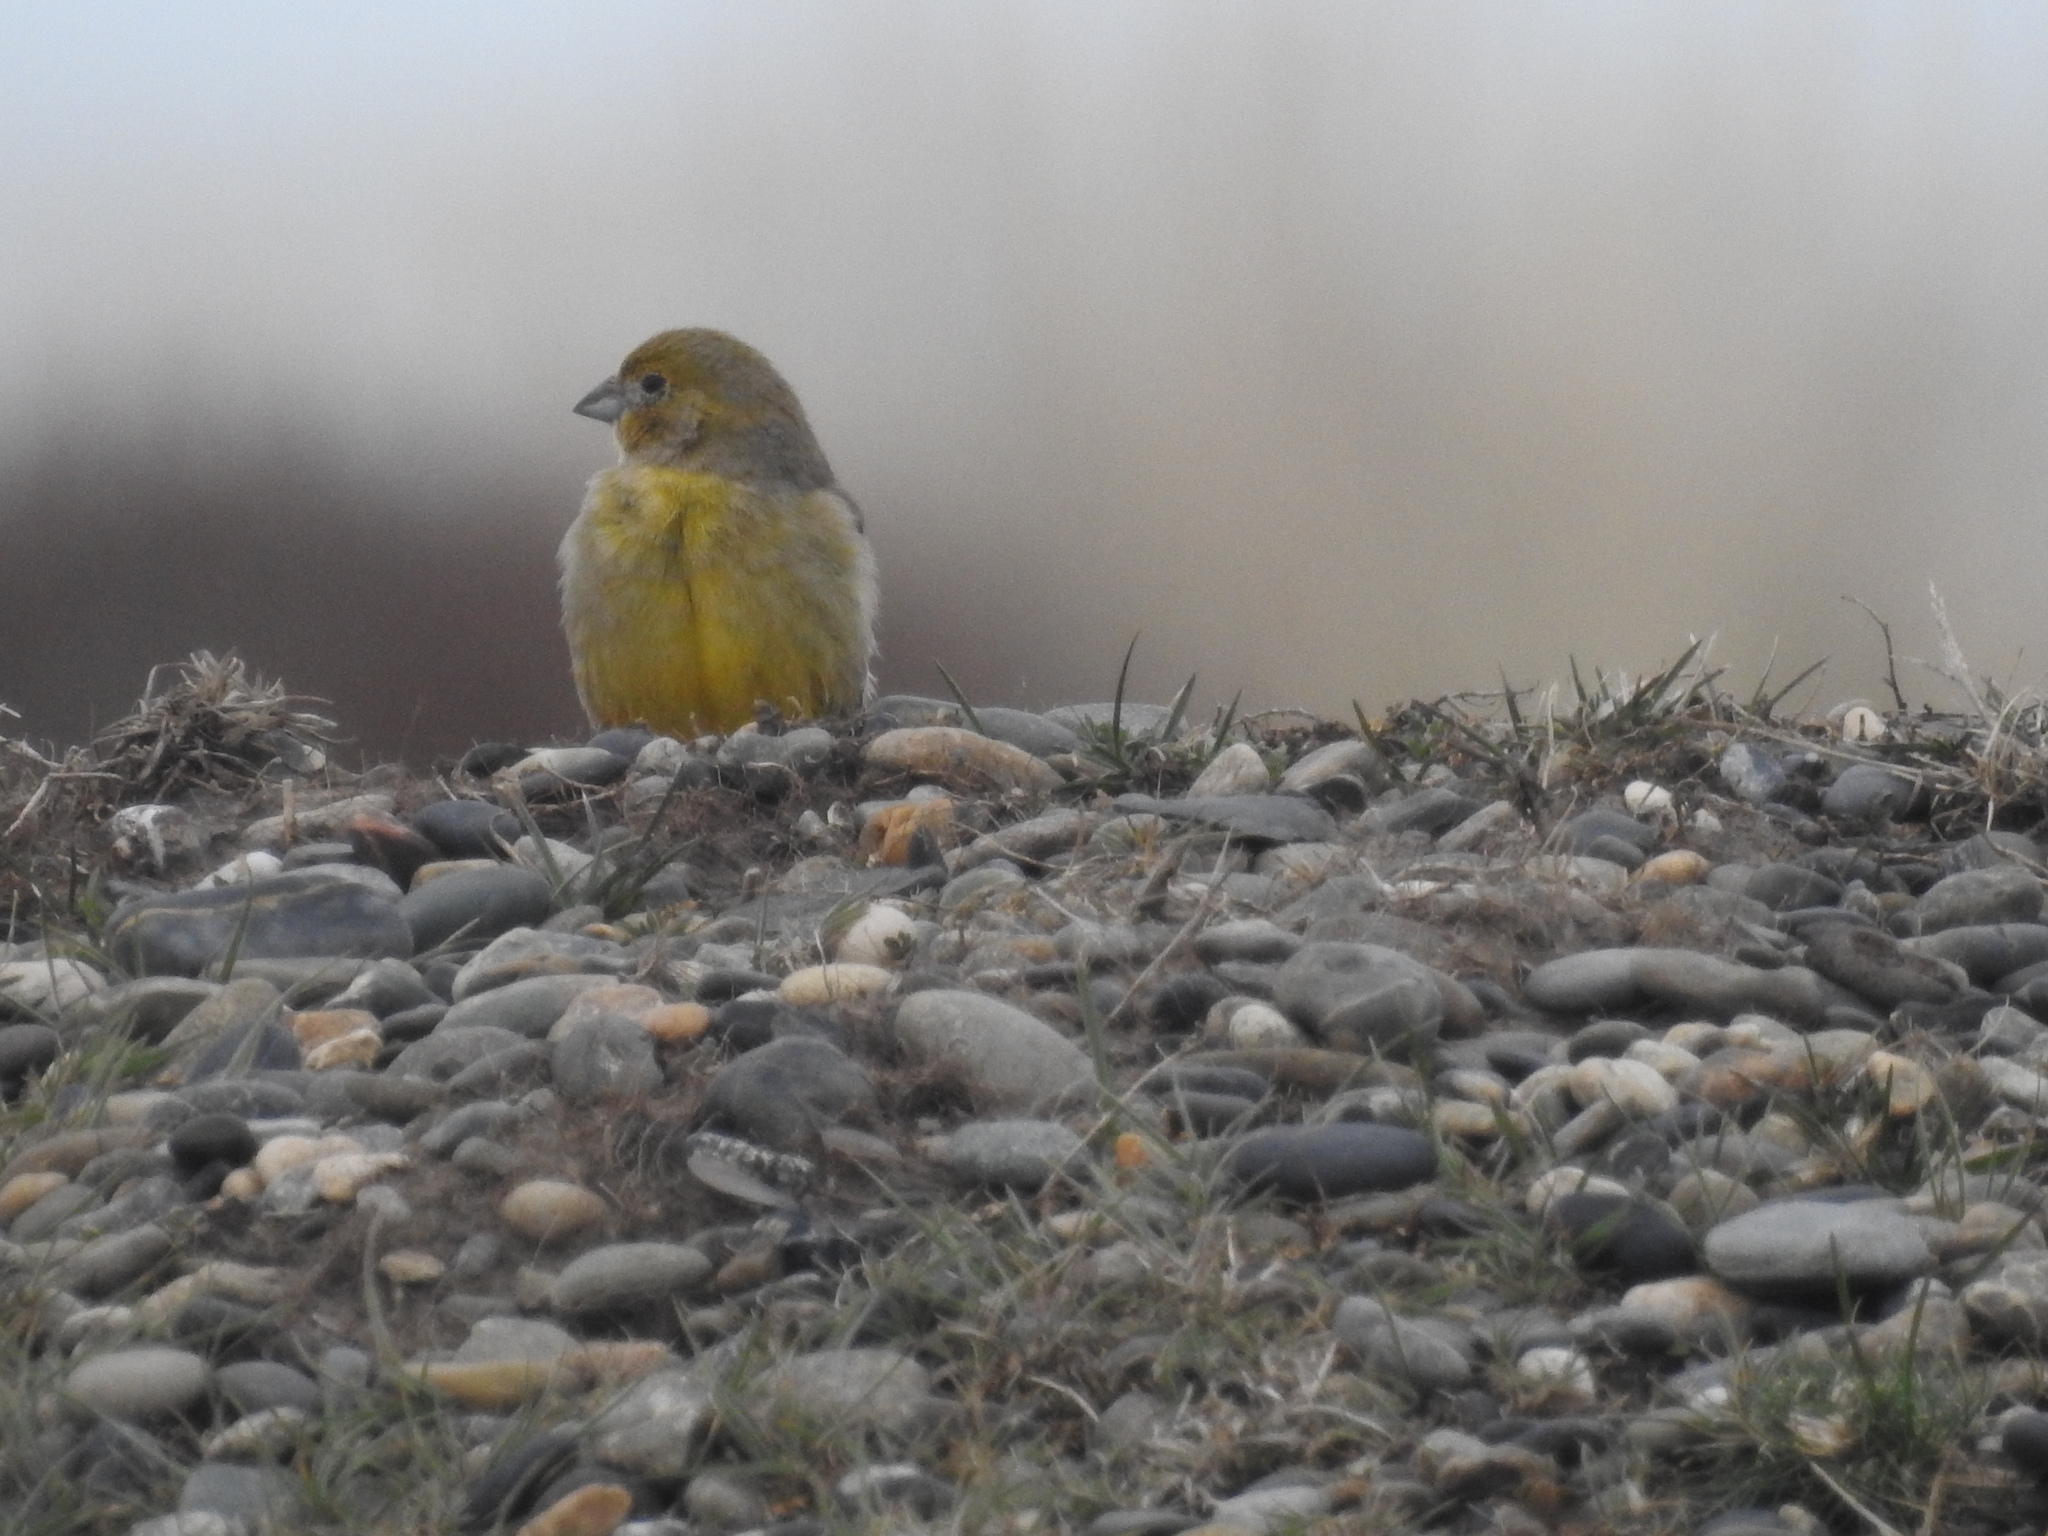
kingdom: Animalia
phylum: Chordata
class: Aves
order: Passeriformes
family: Thraupidae
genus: Sicalis
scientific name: Sicalis lebruni
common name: Patagonian yellow finch
